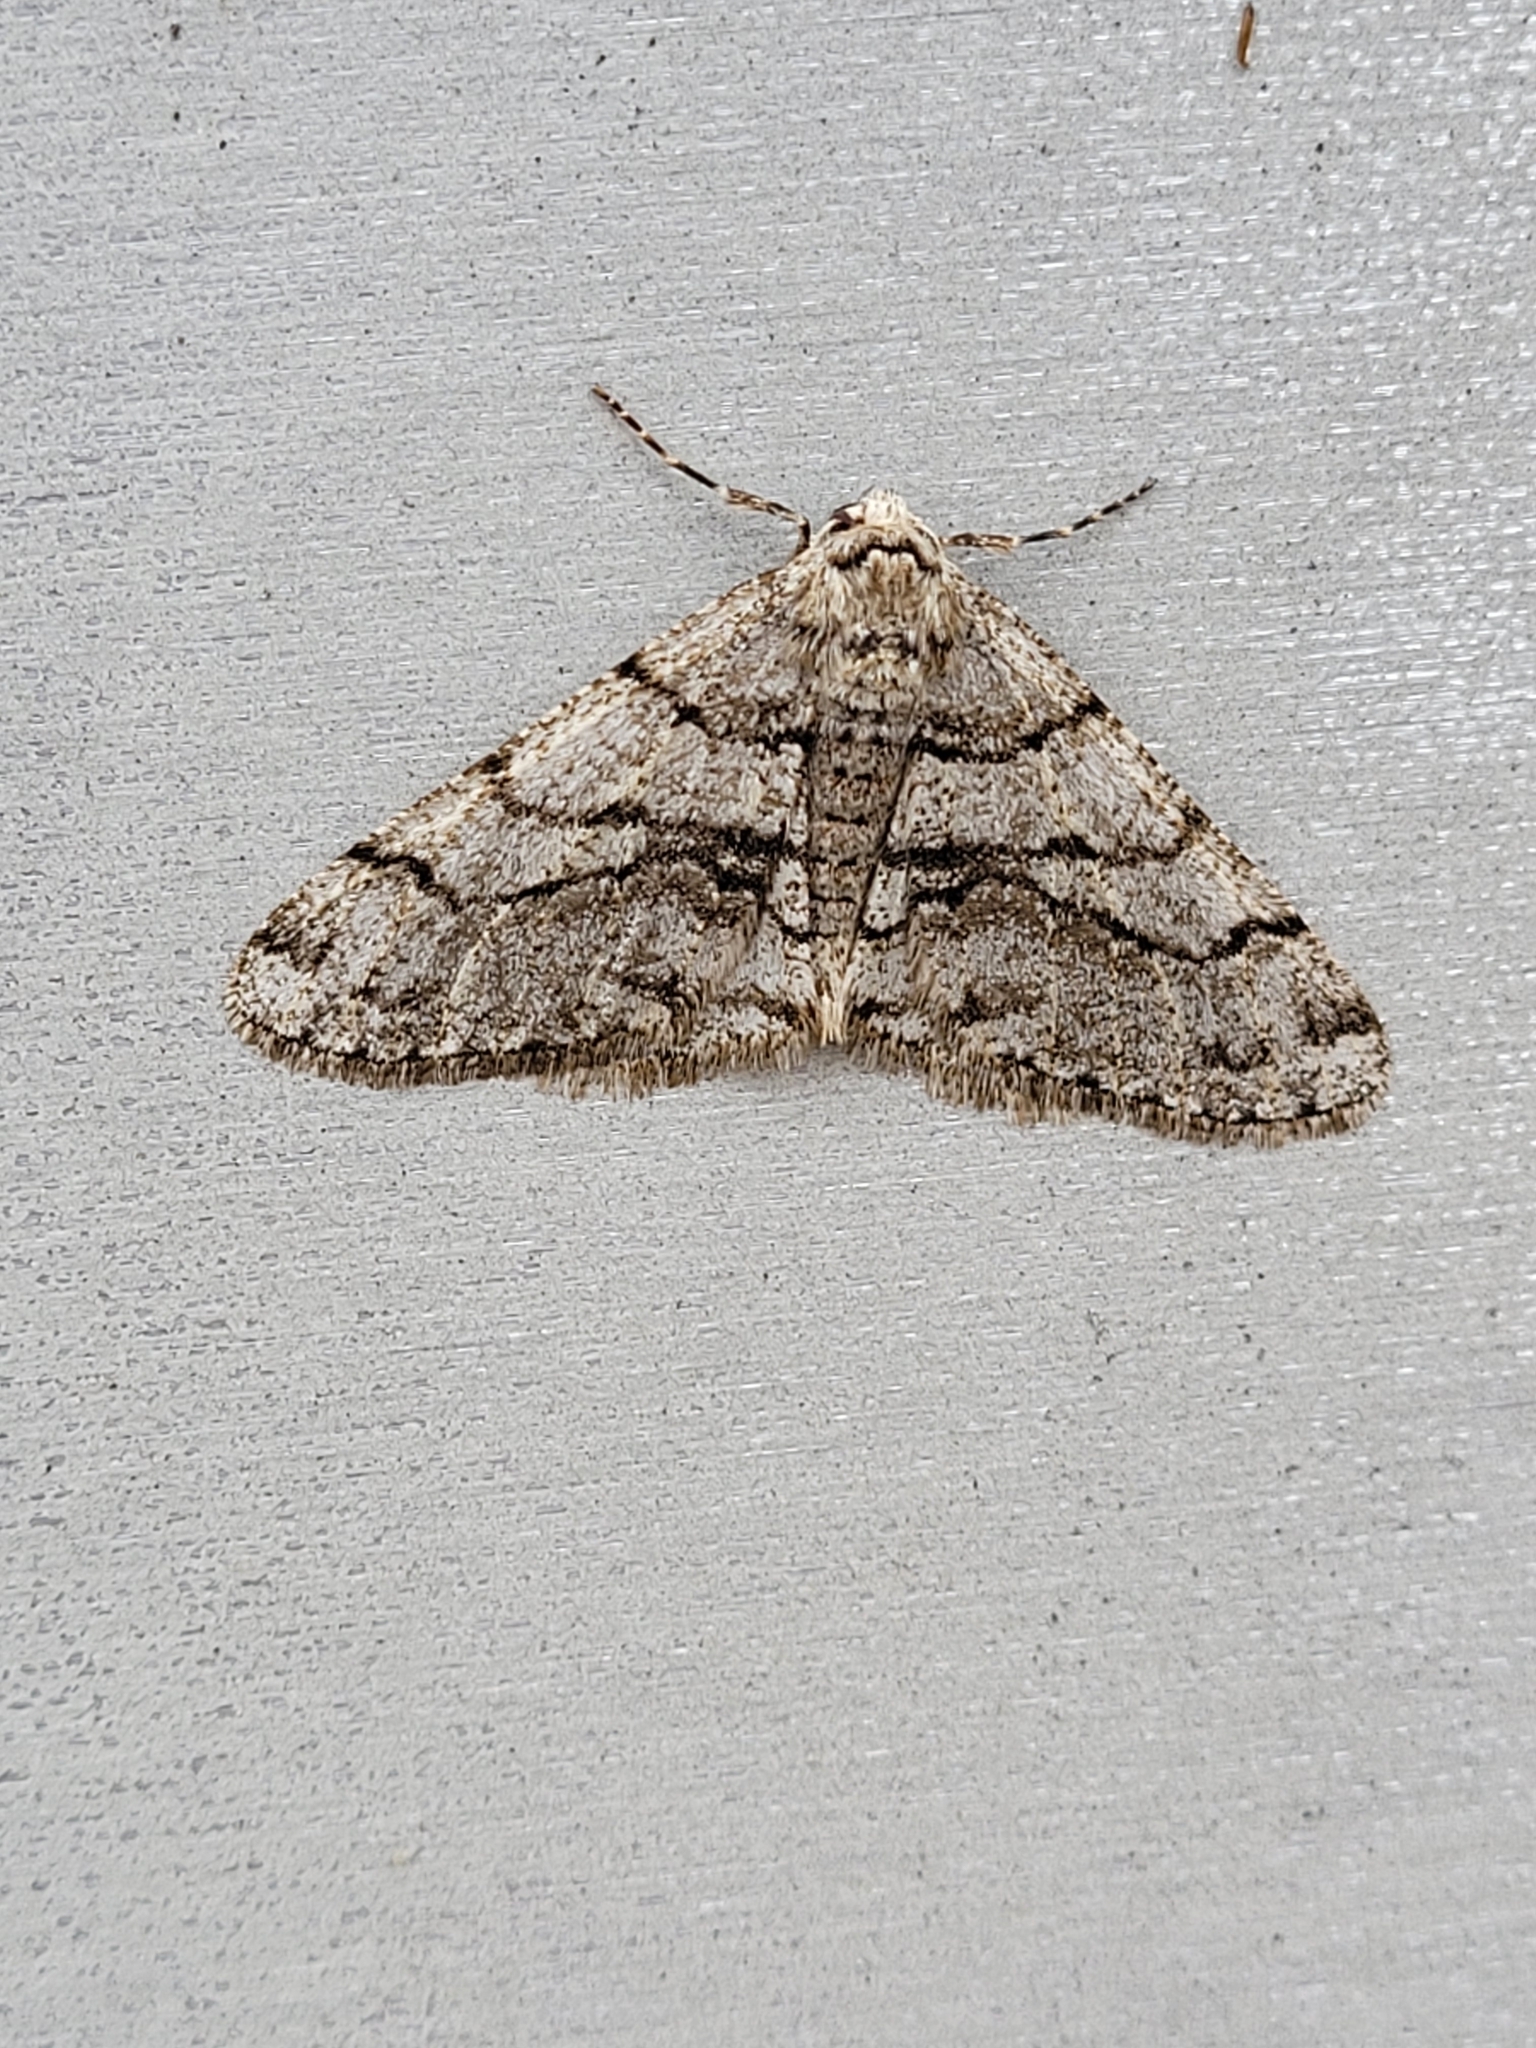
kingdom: Animalia
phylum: Arthropoda
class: Insecta
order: Lepidoptera
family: Geometridae
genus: Phigalia
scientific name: Phigalia titea
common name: Spiny looper
